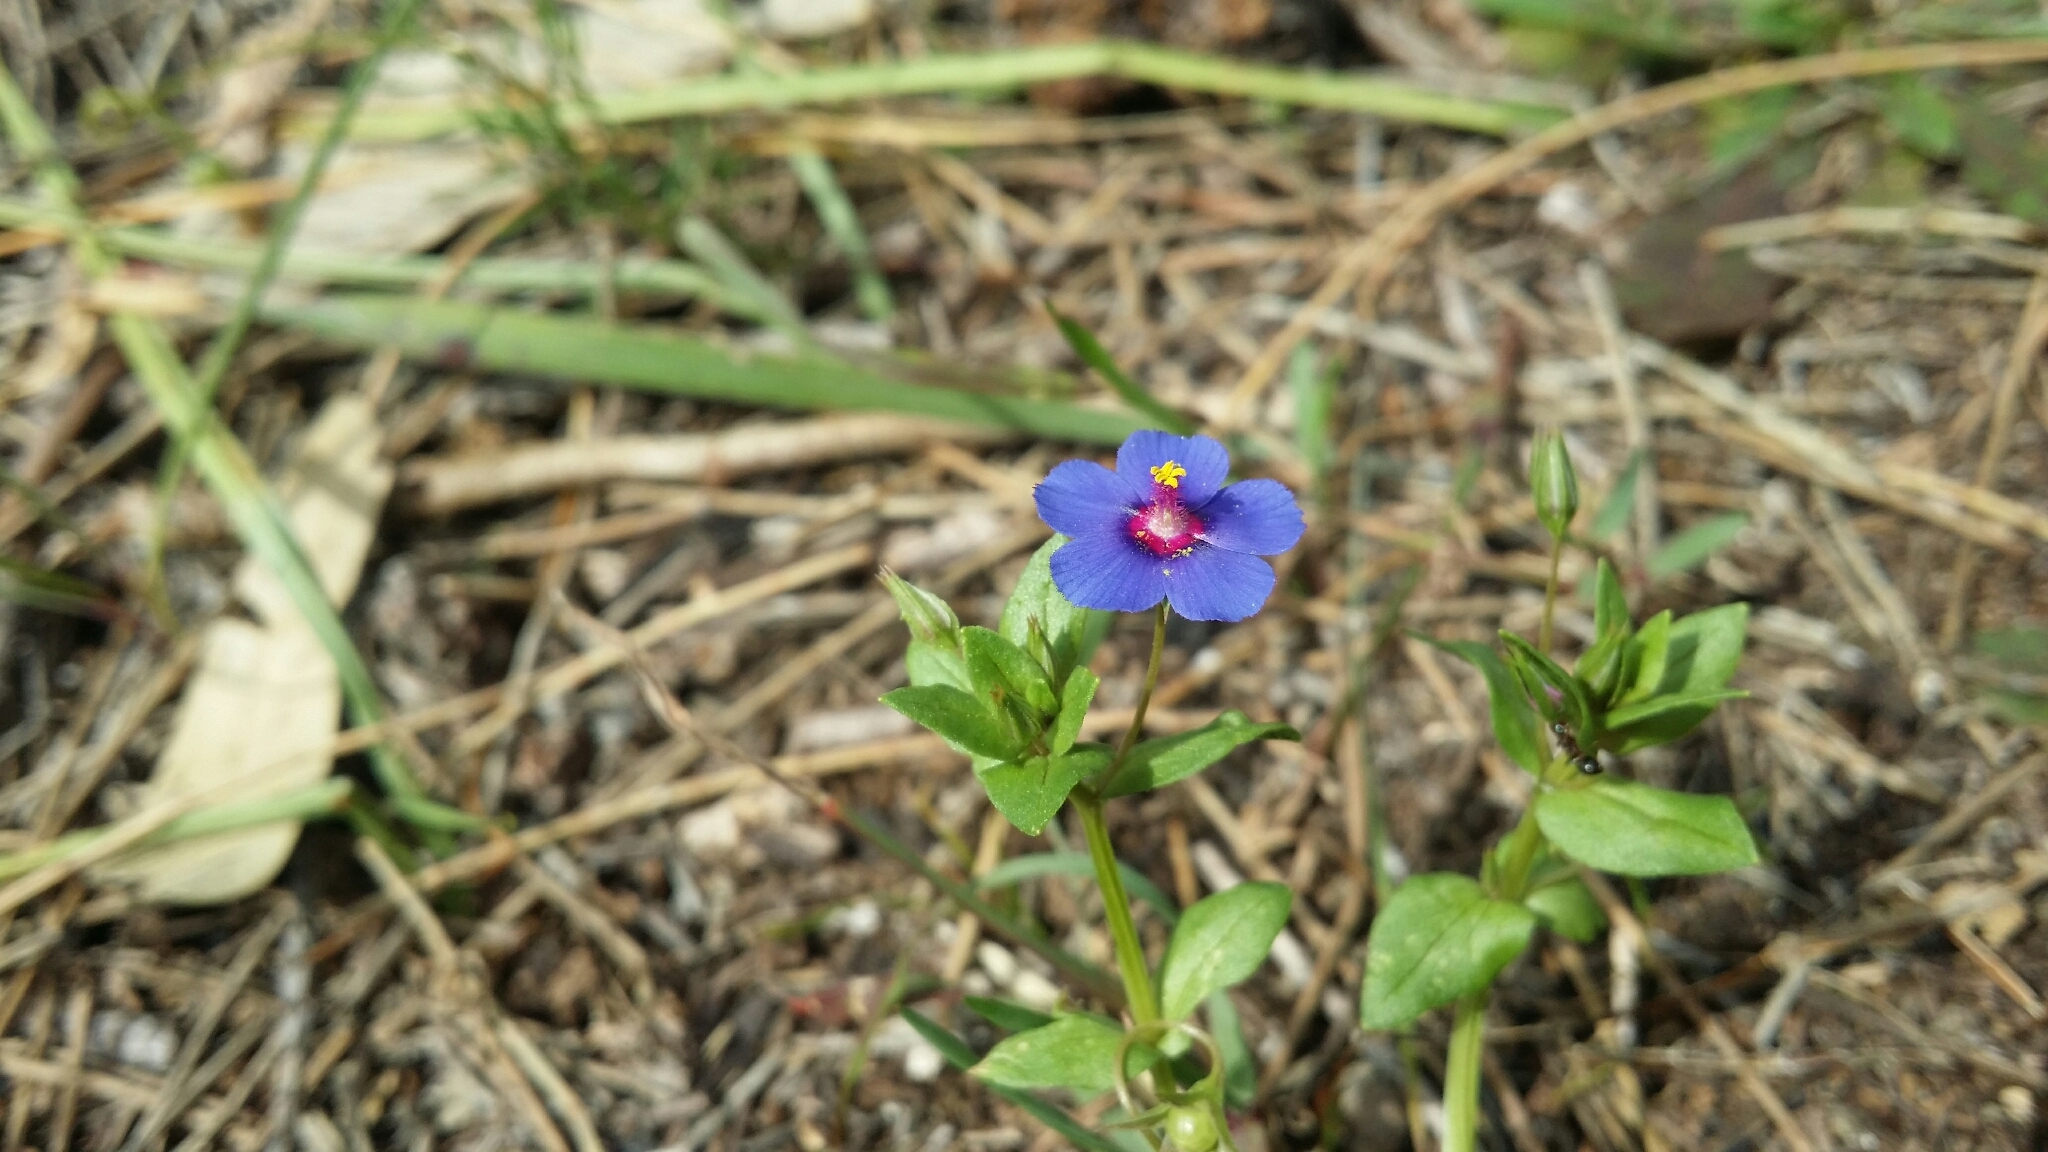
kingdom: Plantae
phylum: Tracheophyta
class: Magnoliopsida
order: Ericales
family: Primulaceae
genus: Lysimachia
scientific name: Lysimachia loeflingii
